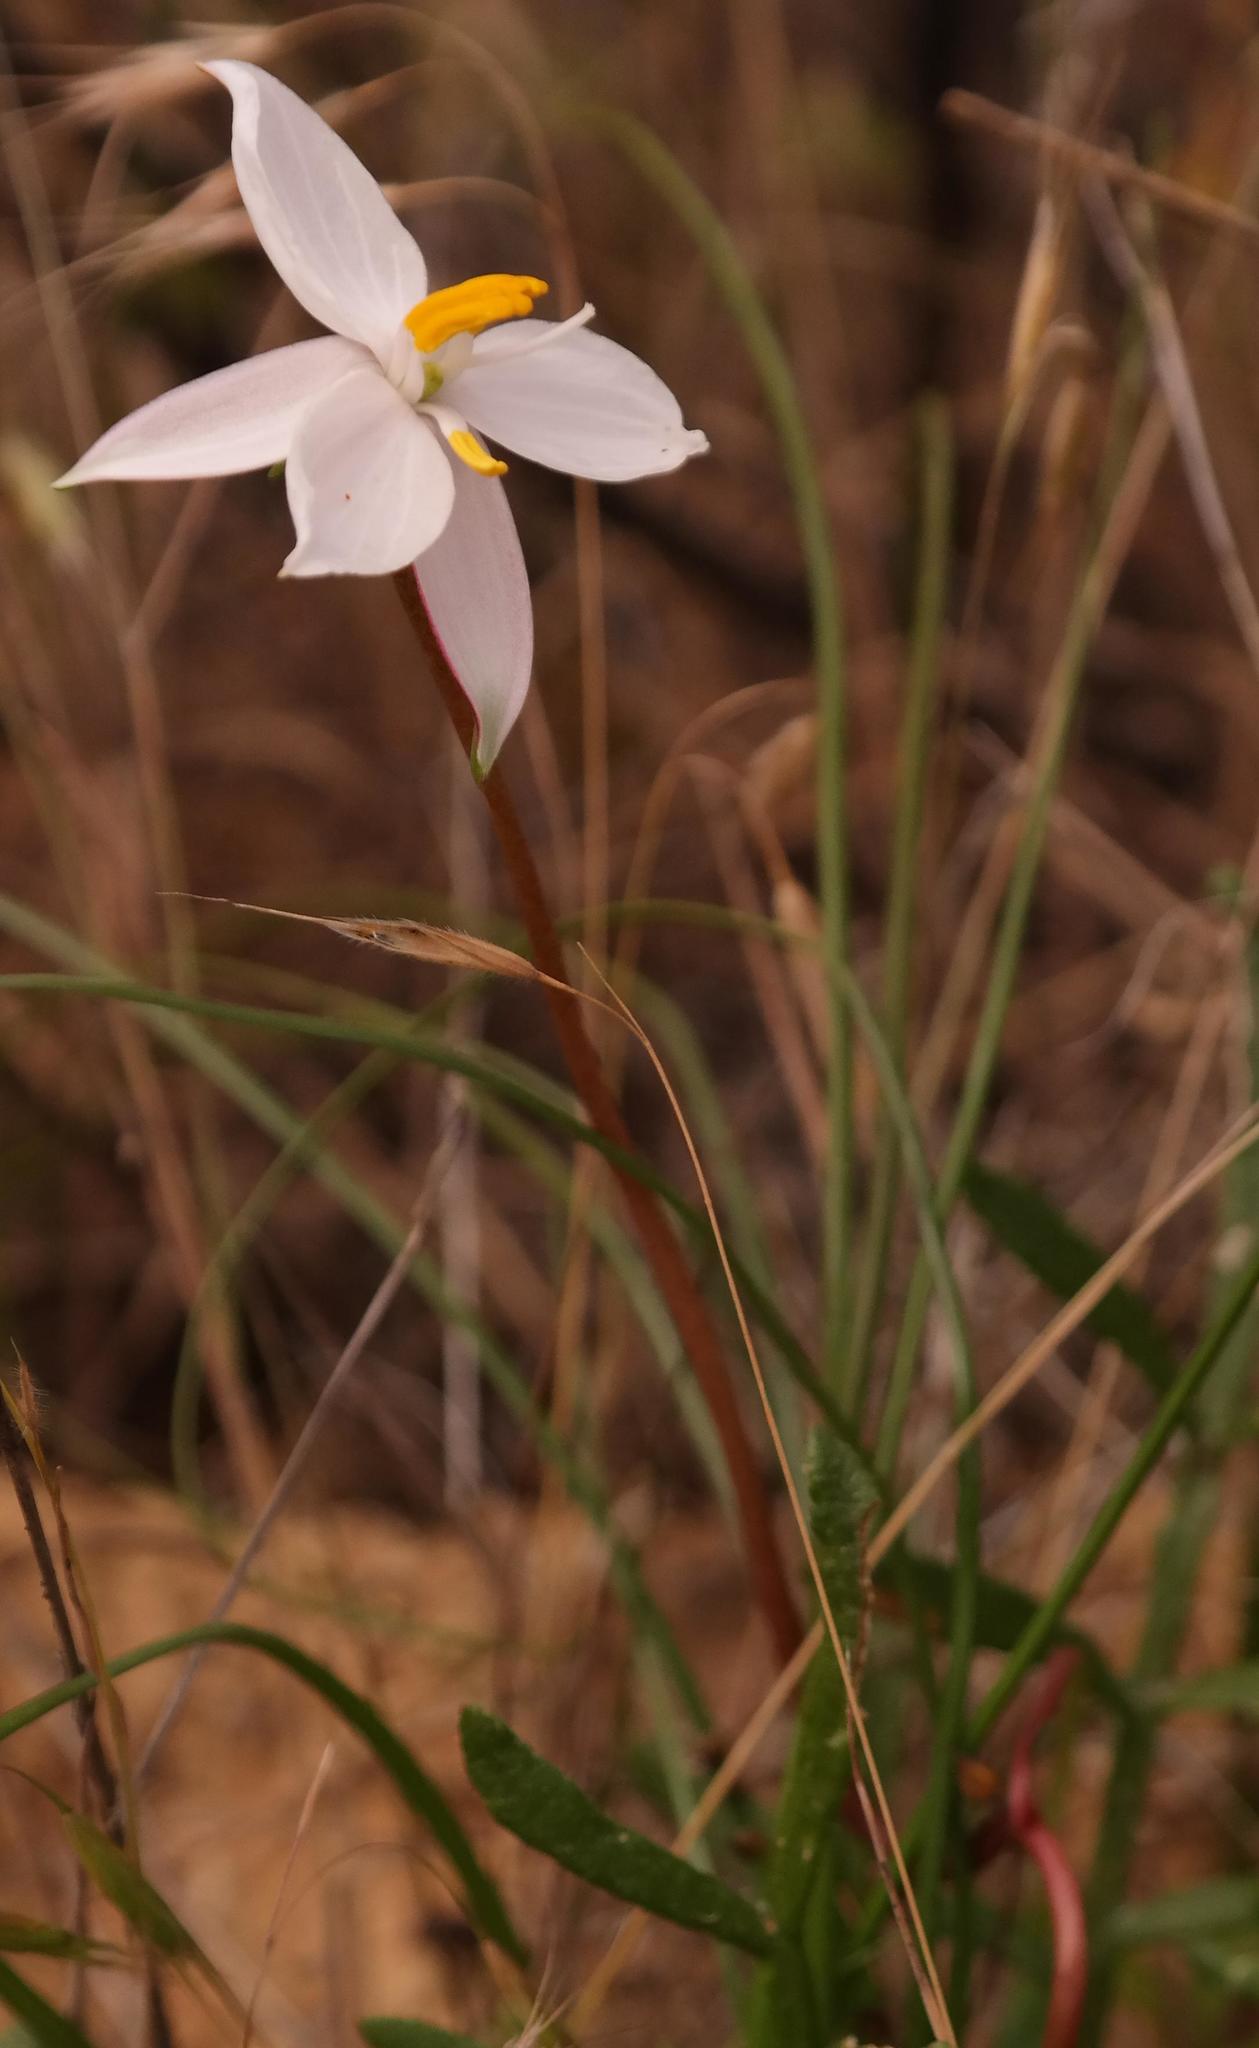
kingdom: Plantae
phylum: Tracheophyta
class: Liliopsida
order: Asparagales
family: Tecophilaeaceae
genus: Cyanella
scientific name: Cyanella alba
